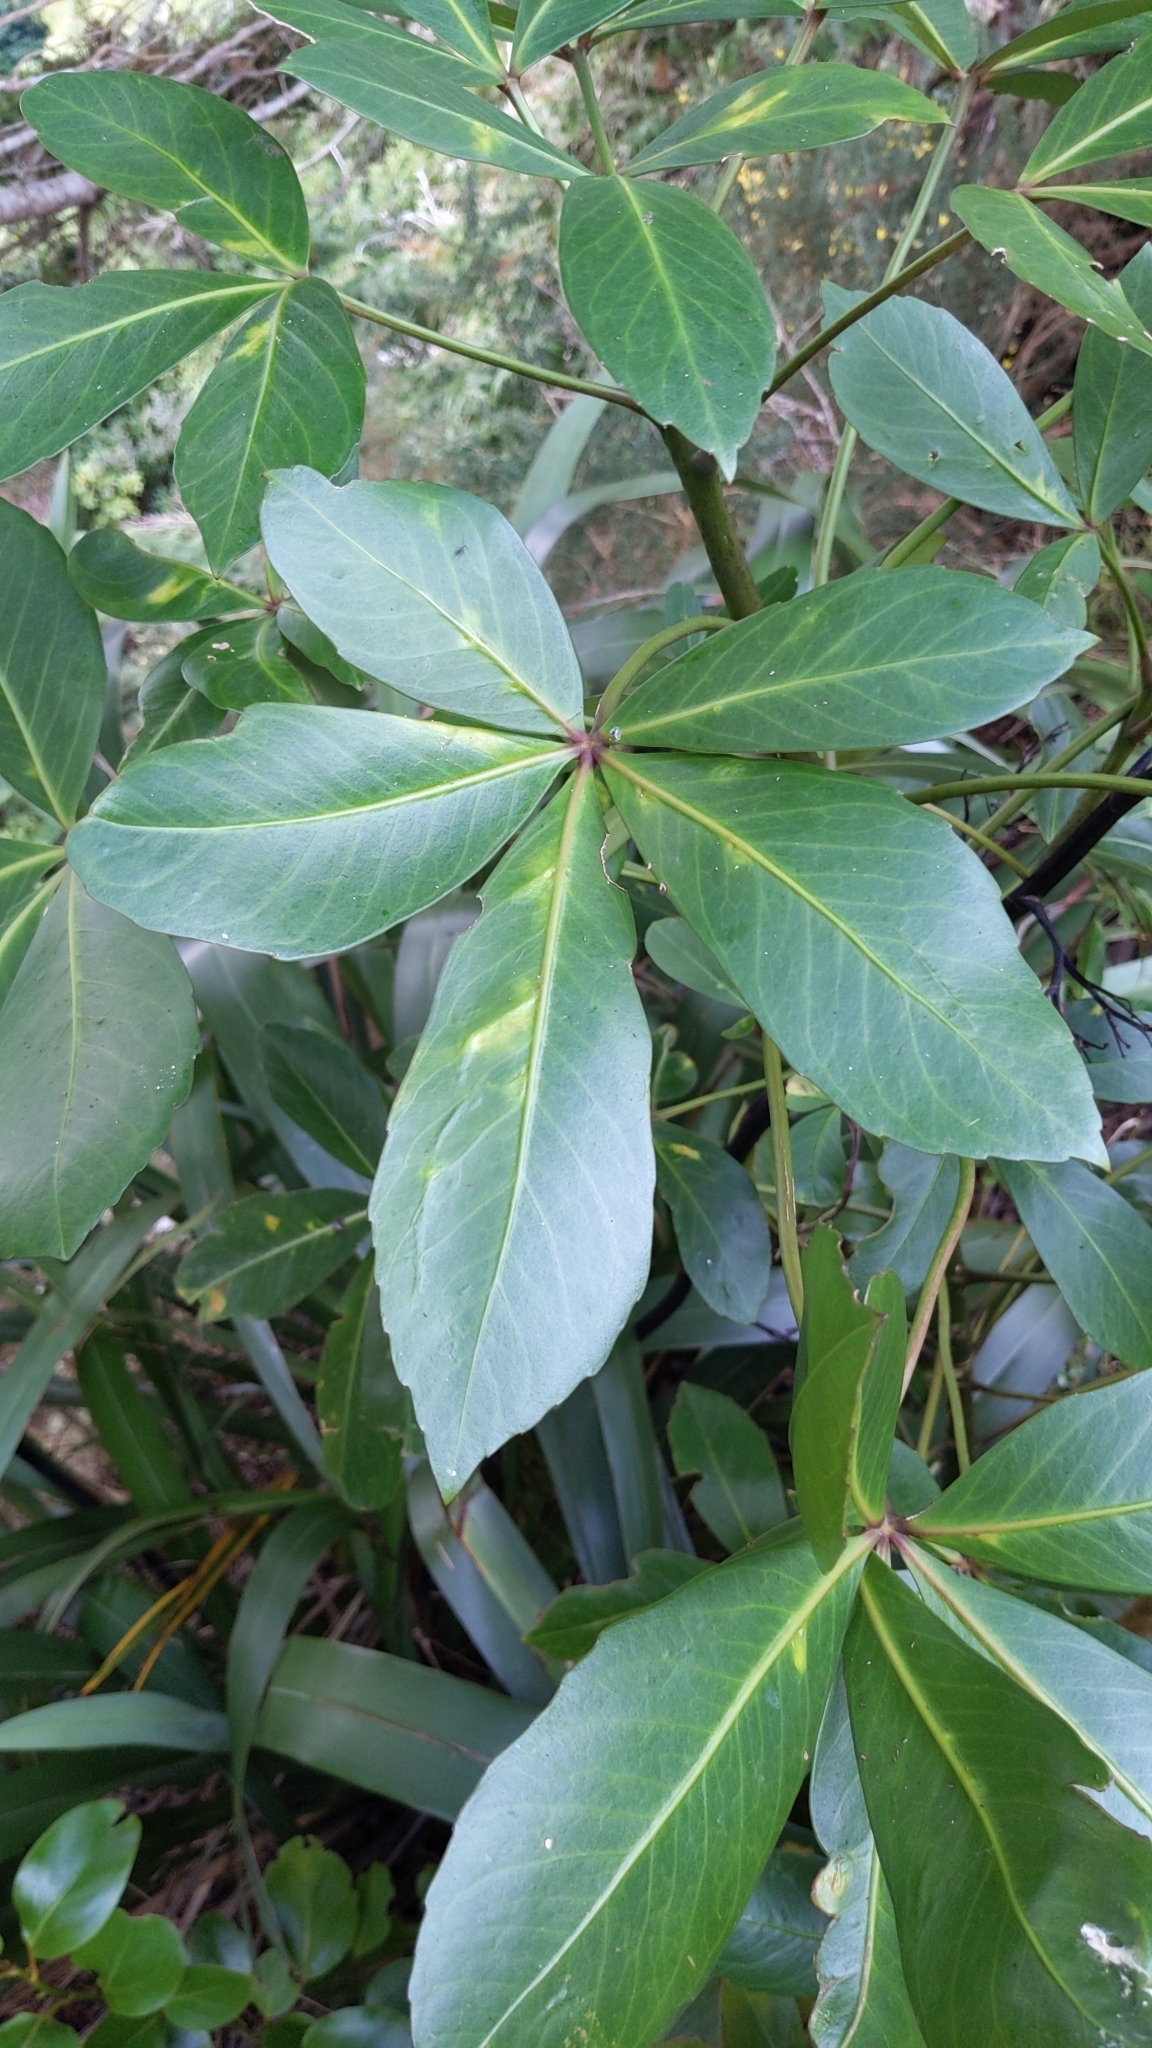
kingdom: Plantae
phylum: Tracheophyta
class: Magnoliopsida
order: Apiales
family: Araliaceae
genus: Pseudopanax
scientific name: Pseudopanax lessonii
